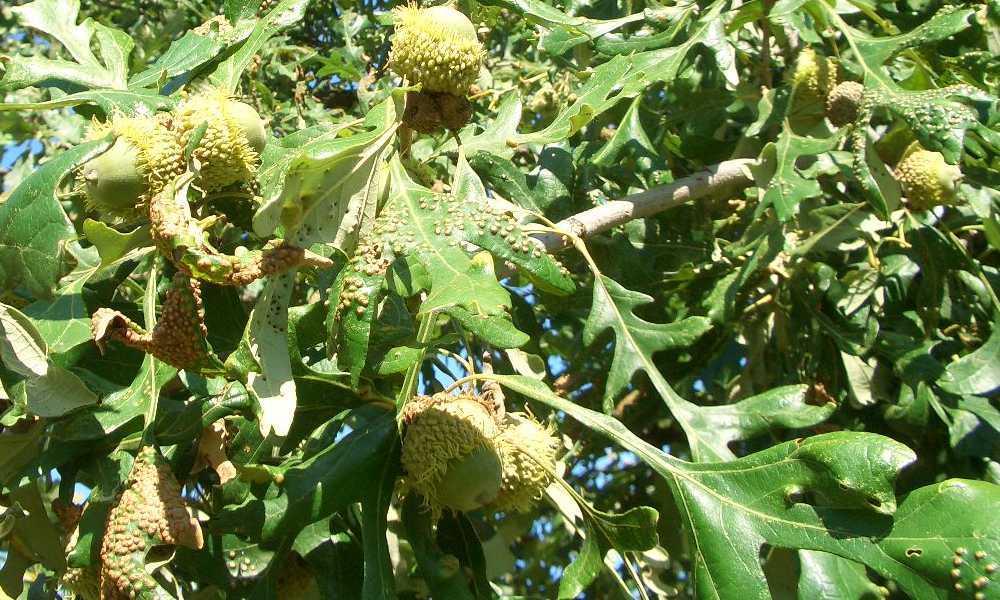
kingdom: Plantae
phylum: Tracheophyta
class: Magnoliopsida
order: Fagales
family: Fagaceae
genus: Quercus
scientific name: Quercus macrocarpa
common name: Bur oak
